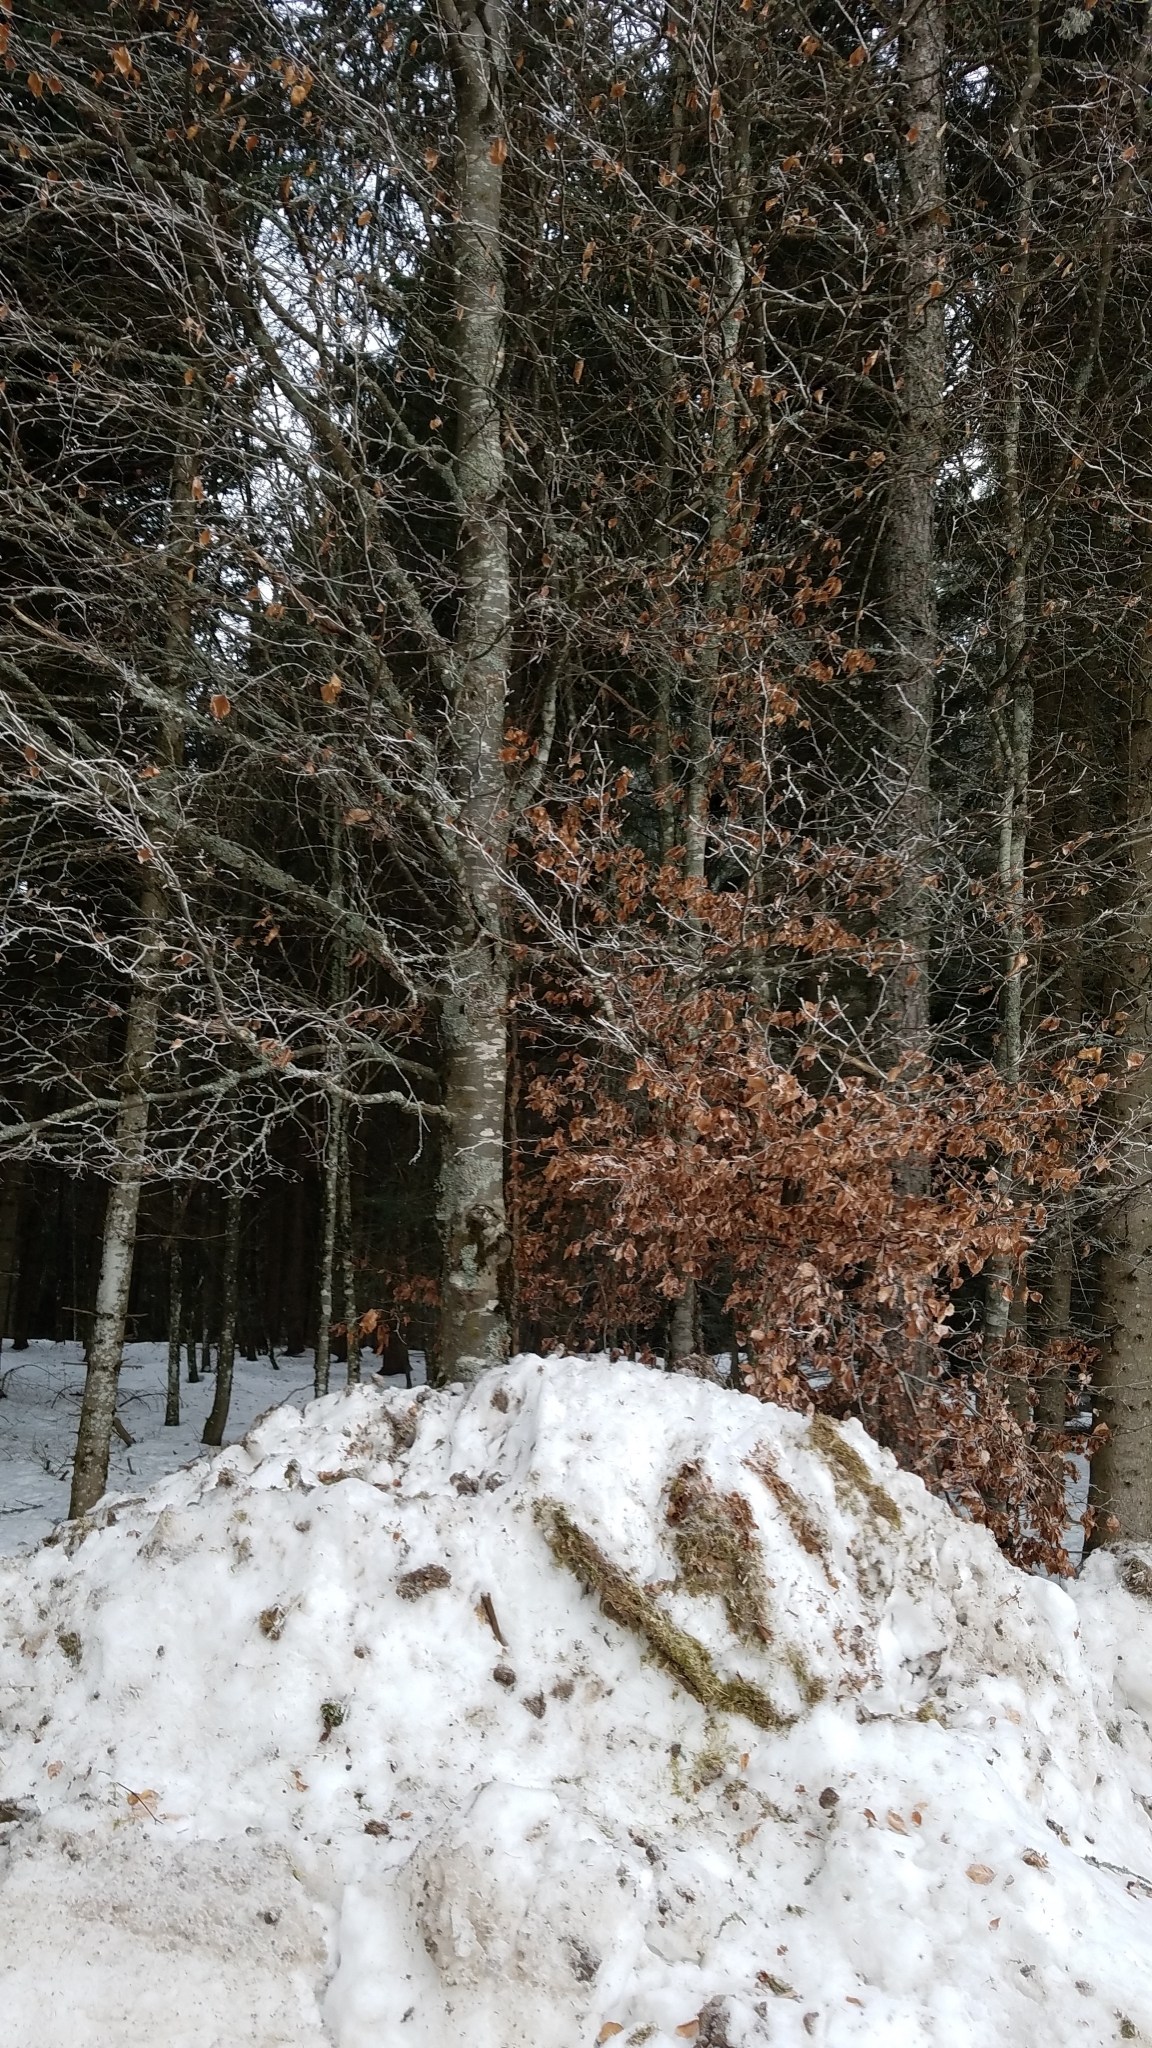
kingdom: Plantae
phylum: Tracheophyta
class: Magnoliopsida
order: Fagales
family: Fagaceae
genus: Fagus
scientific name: Fagus sylvatica
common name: Beech
